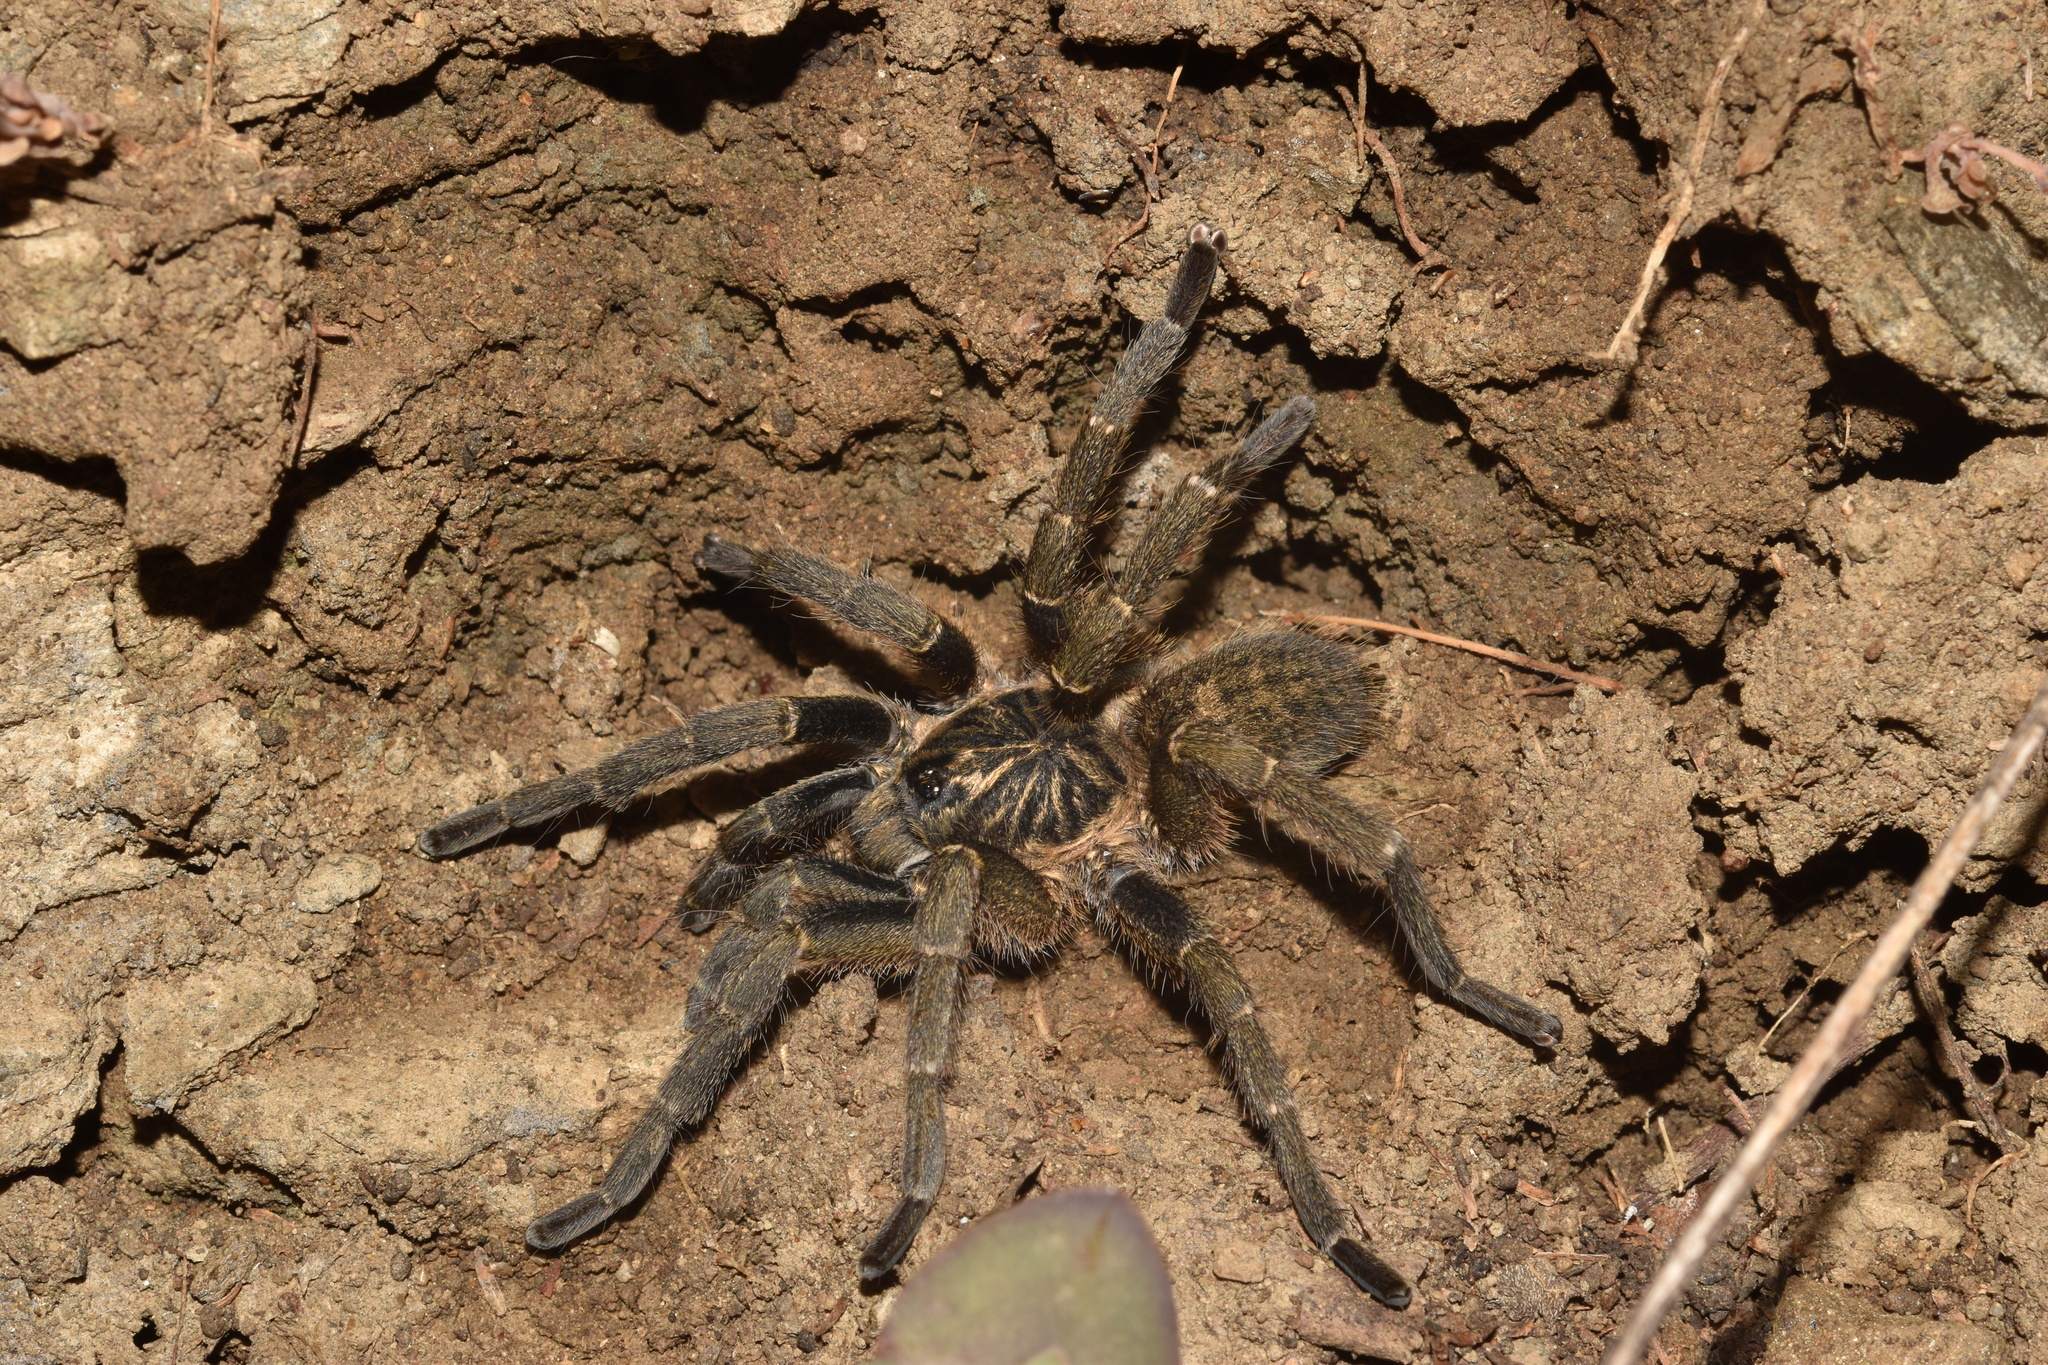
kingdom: Animalia
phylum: Arthropoda
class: Arachnida
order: Araneae
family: Theraphosidae
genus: Idiothele
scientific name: Idiothele nigrofulva
